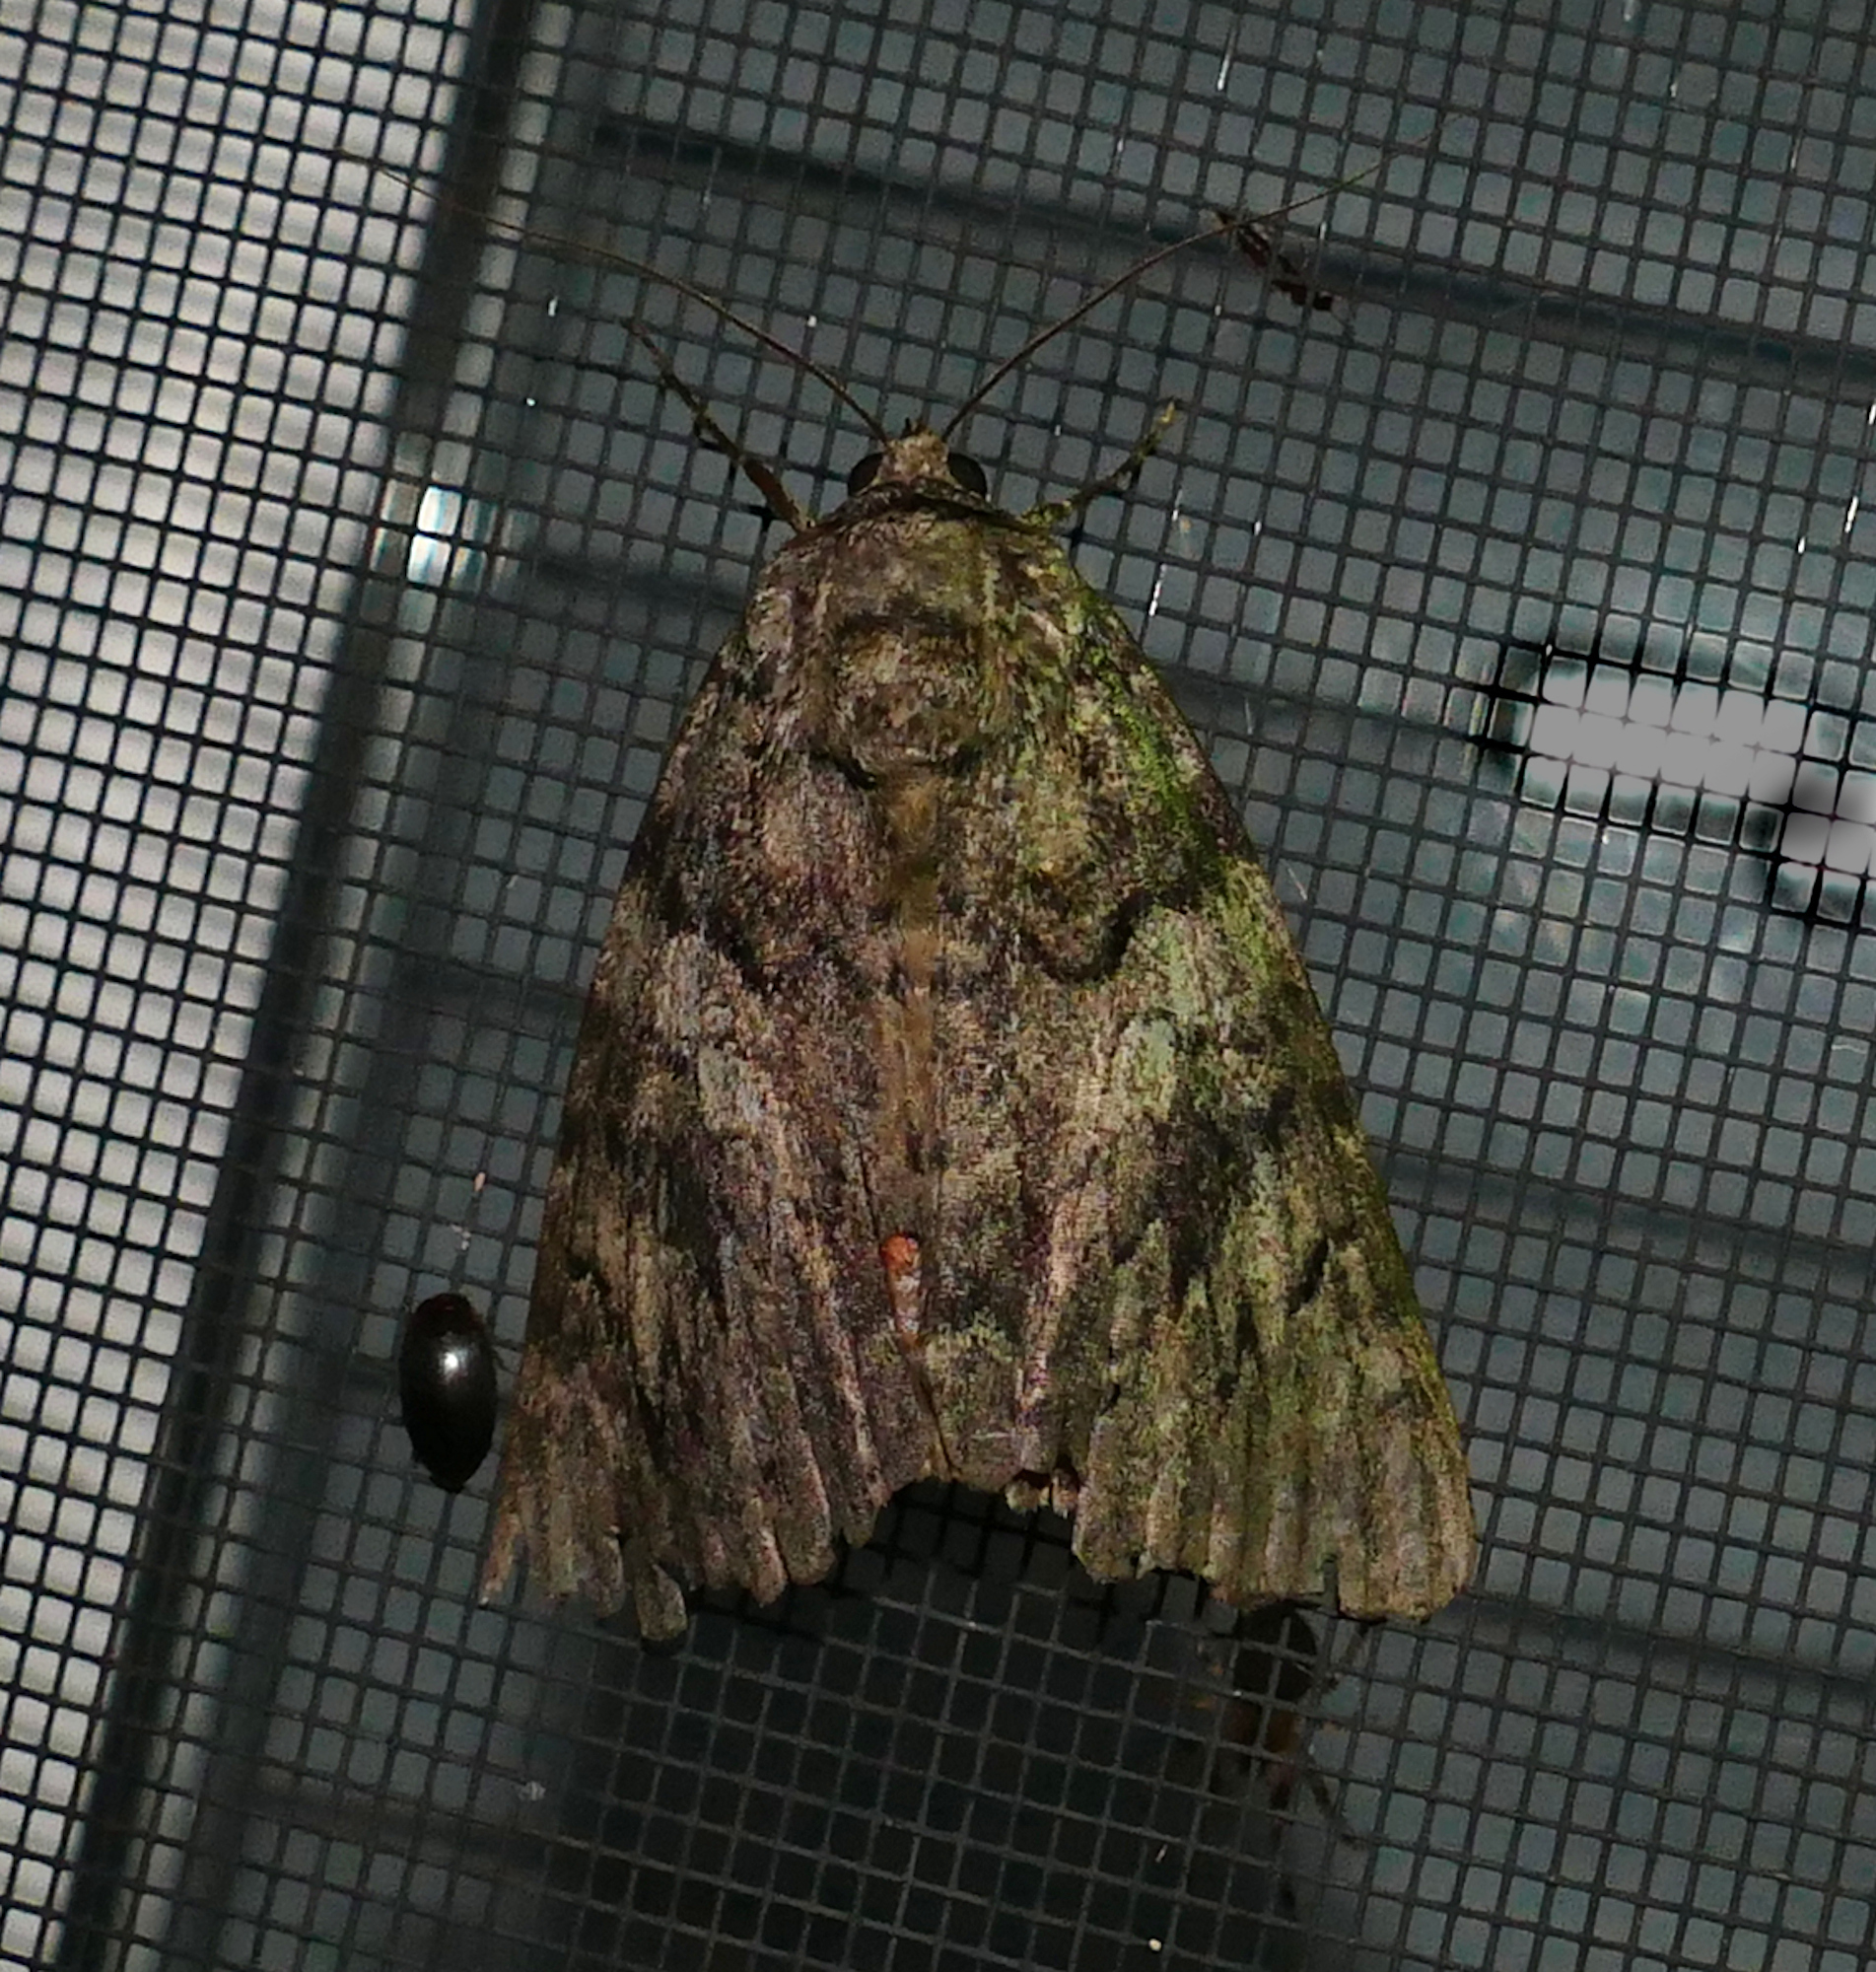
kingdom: Animalia
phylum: Arthropoda
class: Insecta
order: Lepidoptera
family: Erebidae
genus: Catocala
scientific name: Catocala ilia
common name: Ilia underwing
